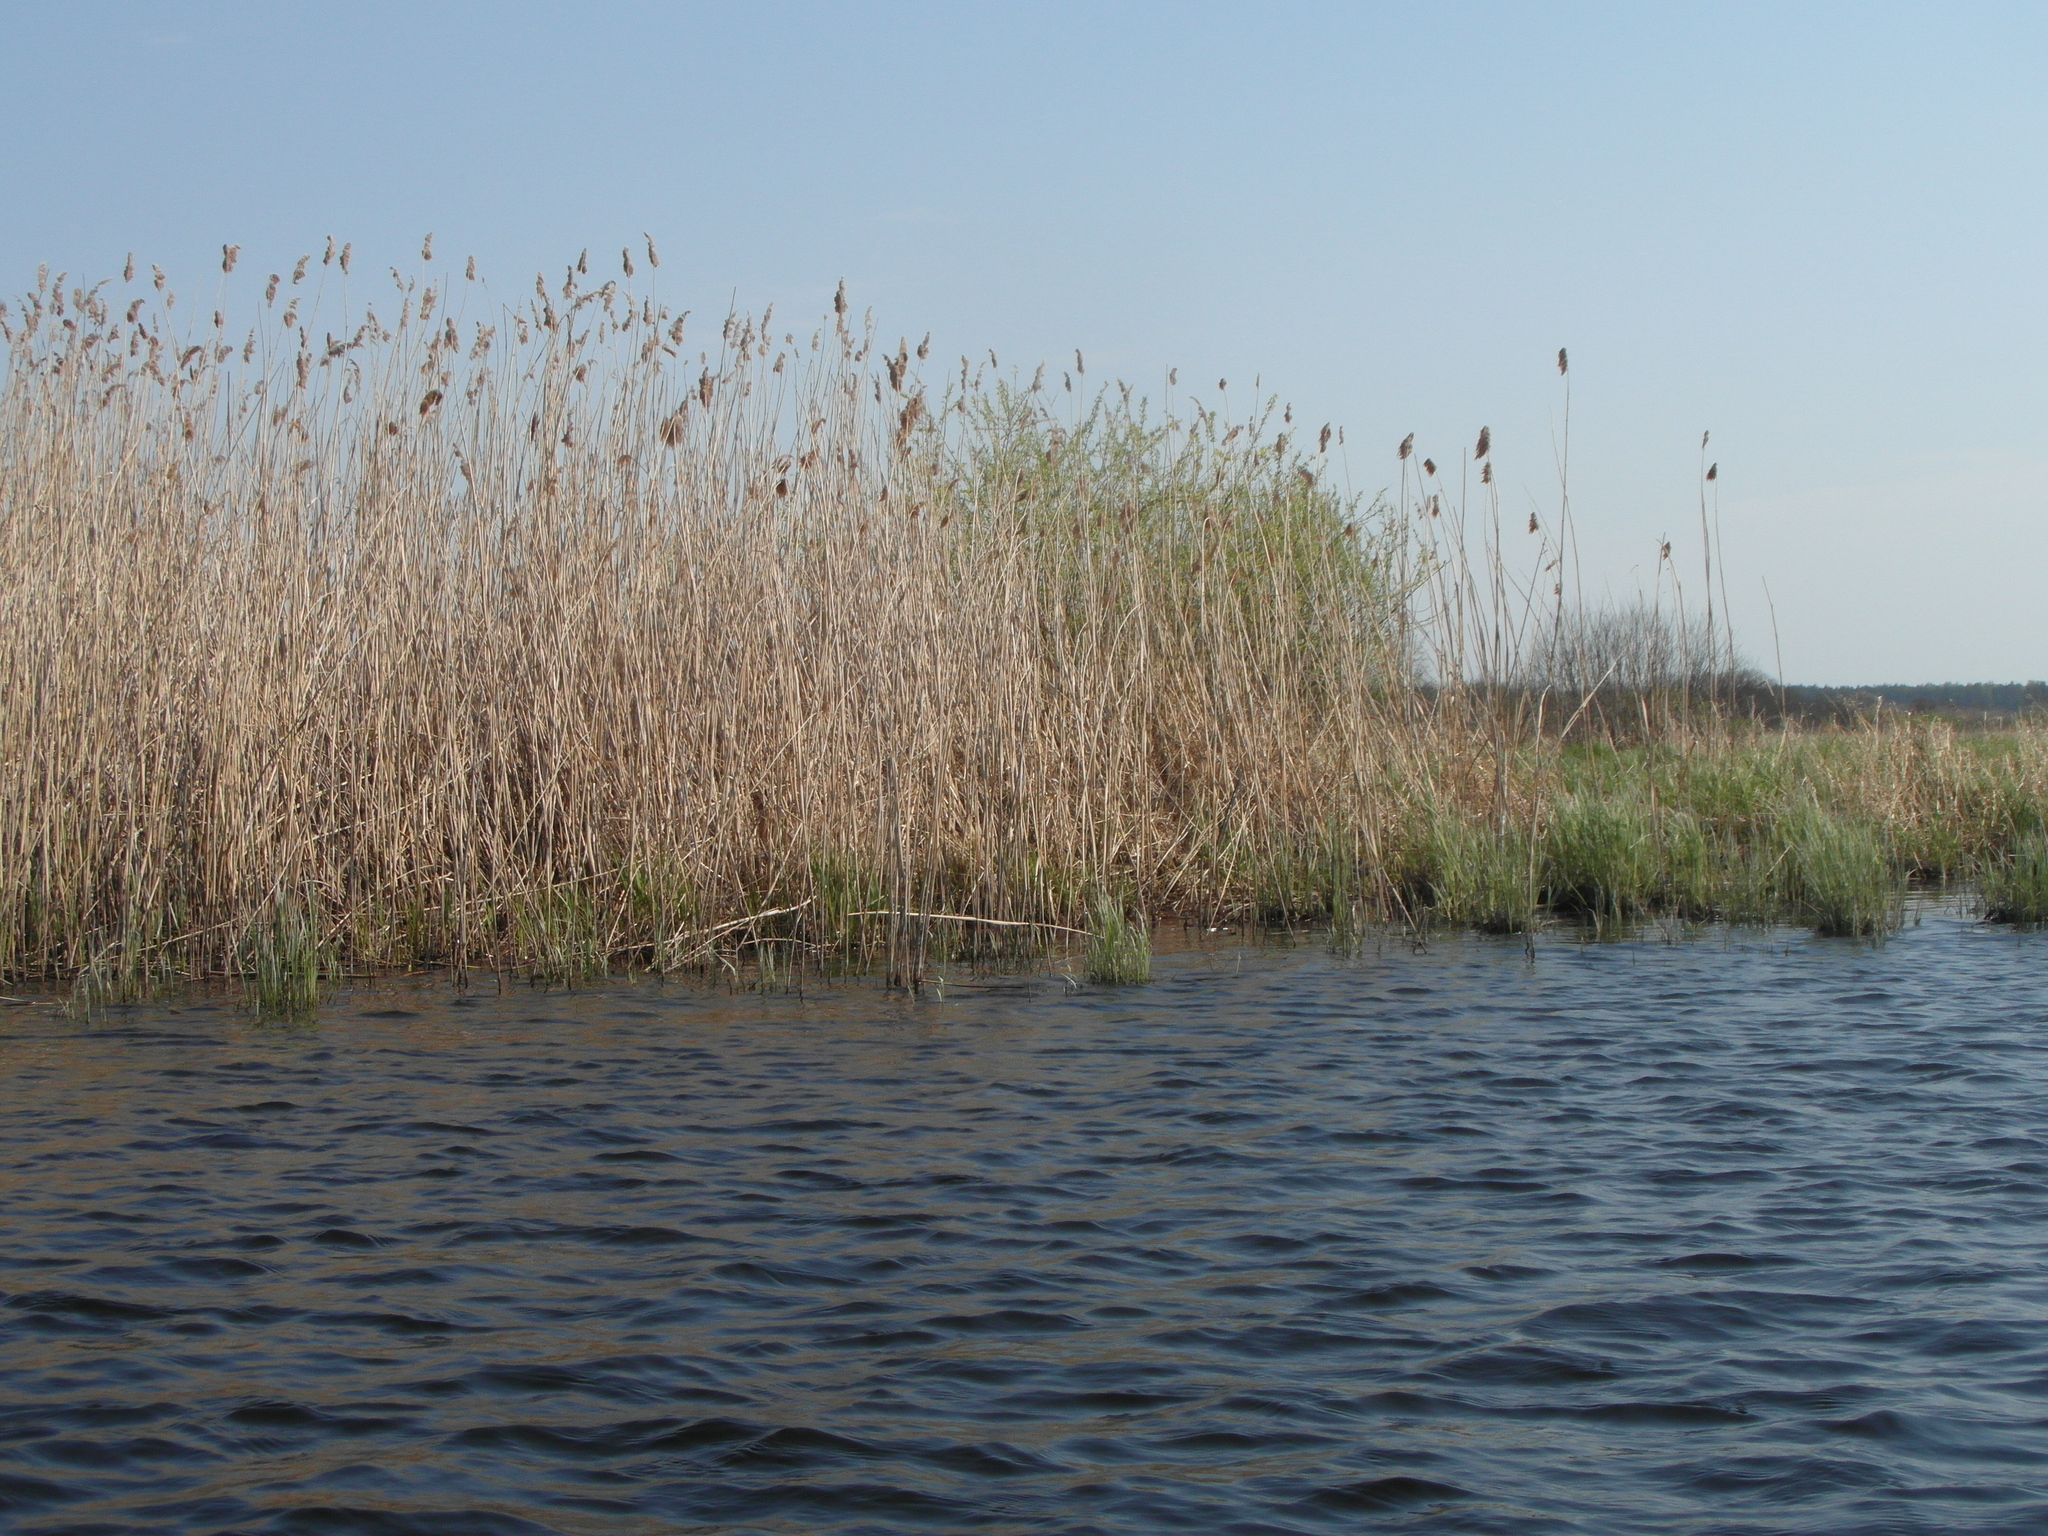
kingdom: Plantae
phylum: Tracheophyta
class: Liliopsida
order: Poales
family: Poaceae
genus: Phragmites
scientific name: Phragmites australis
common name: Common reed
